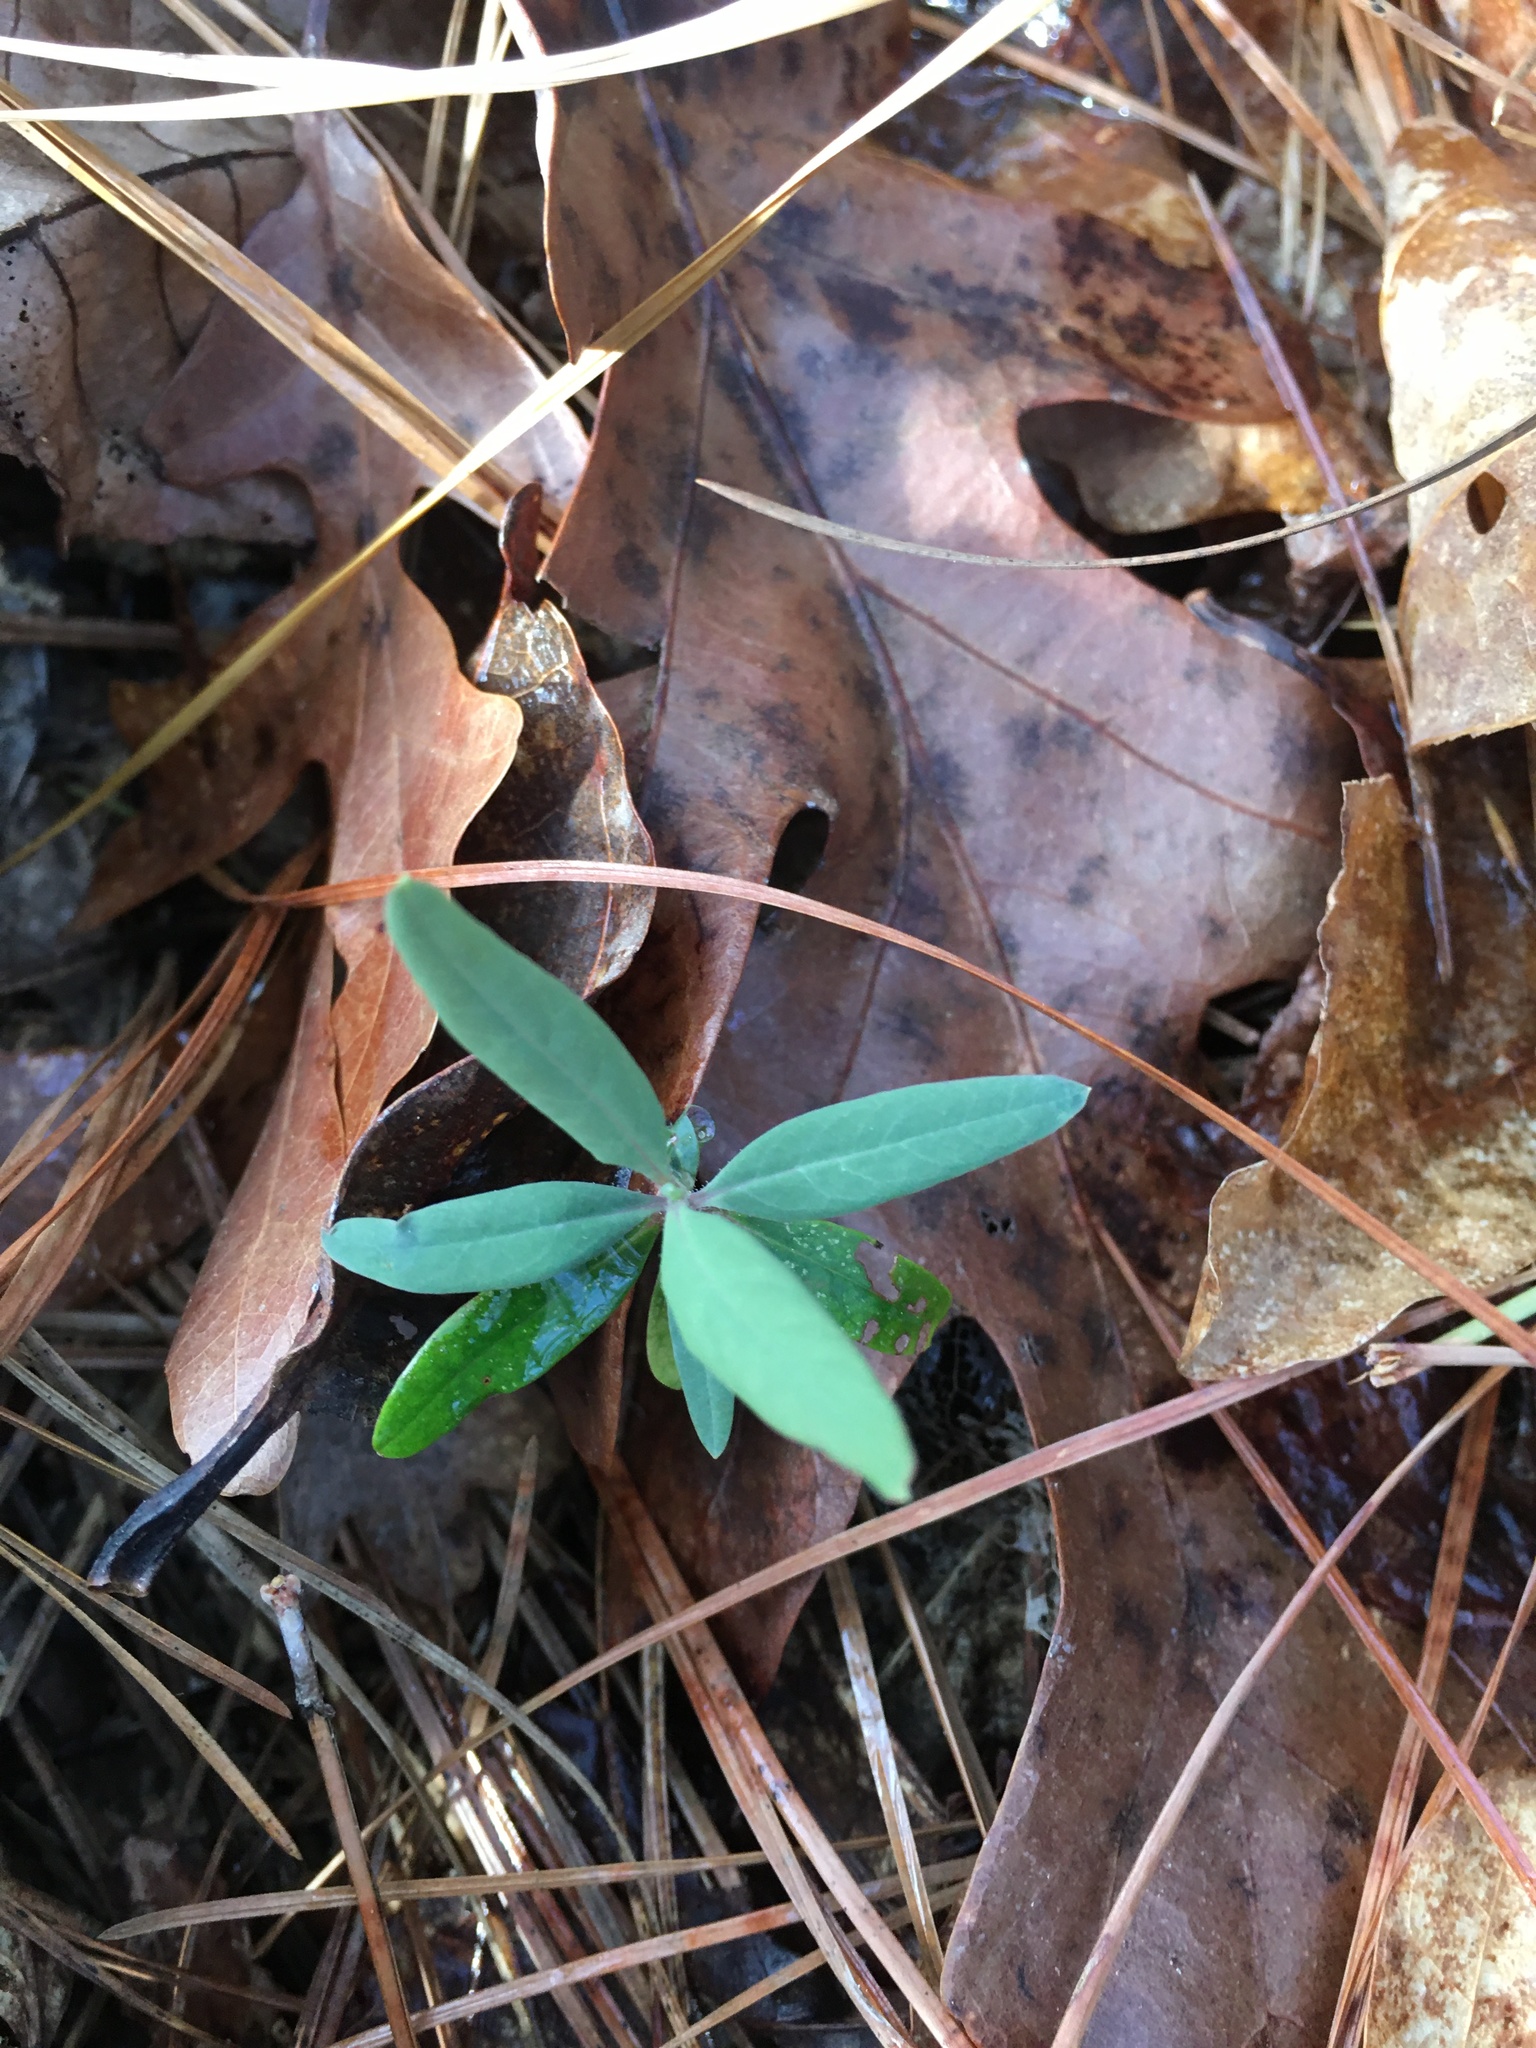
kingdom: Plantae
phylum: Tracheophyta
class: Magnoliopsida
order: Dipsacales
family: Caprifoliaceae
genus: Lonicera
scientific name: Lonicera sempervirens
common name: Coral honeysuckle
